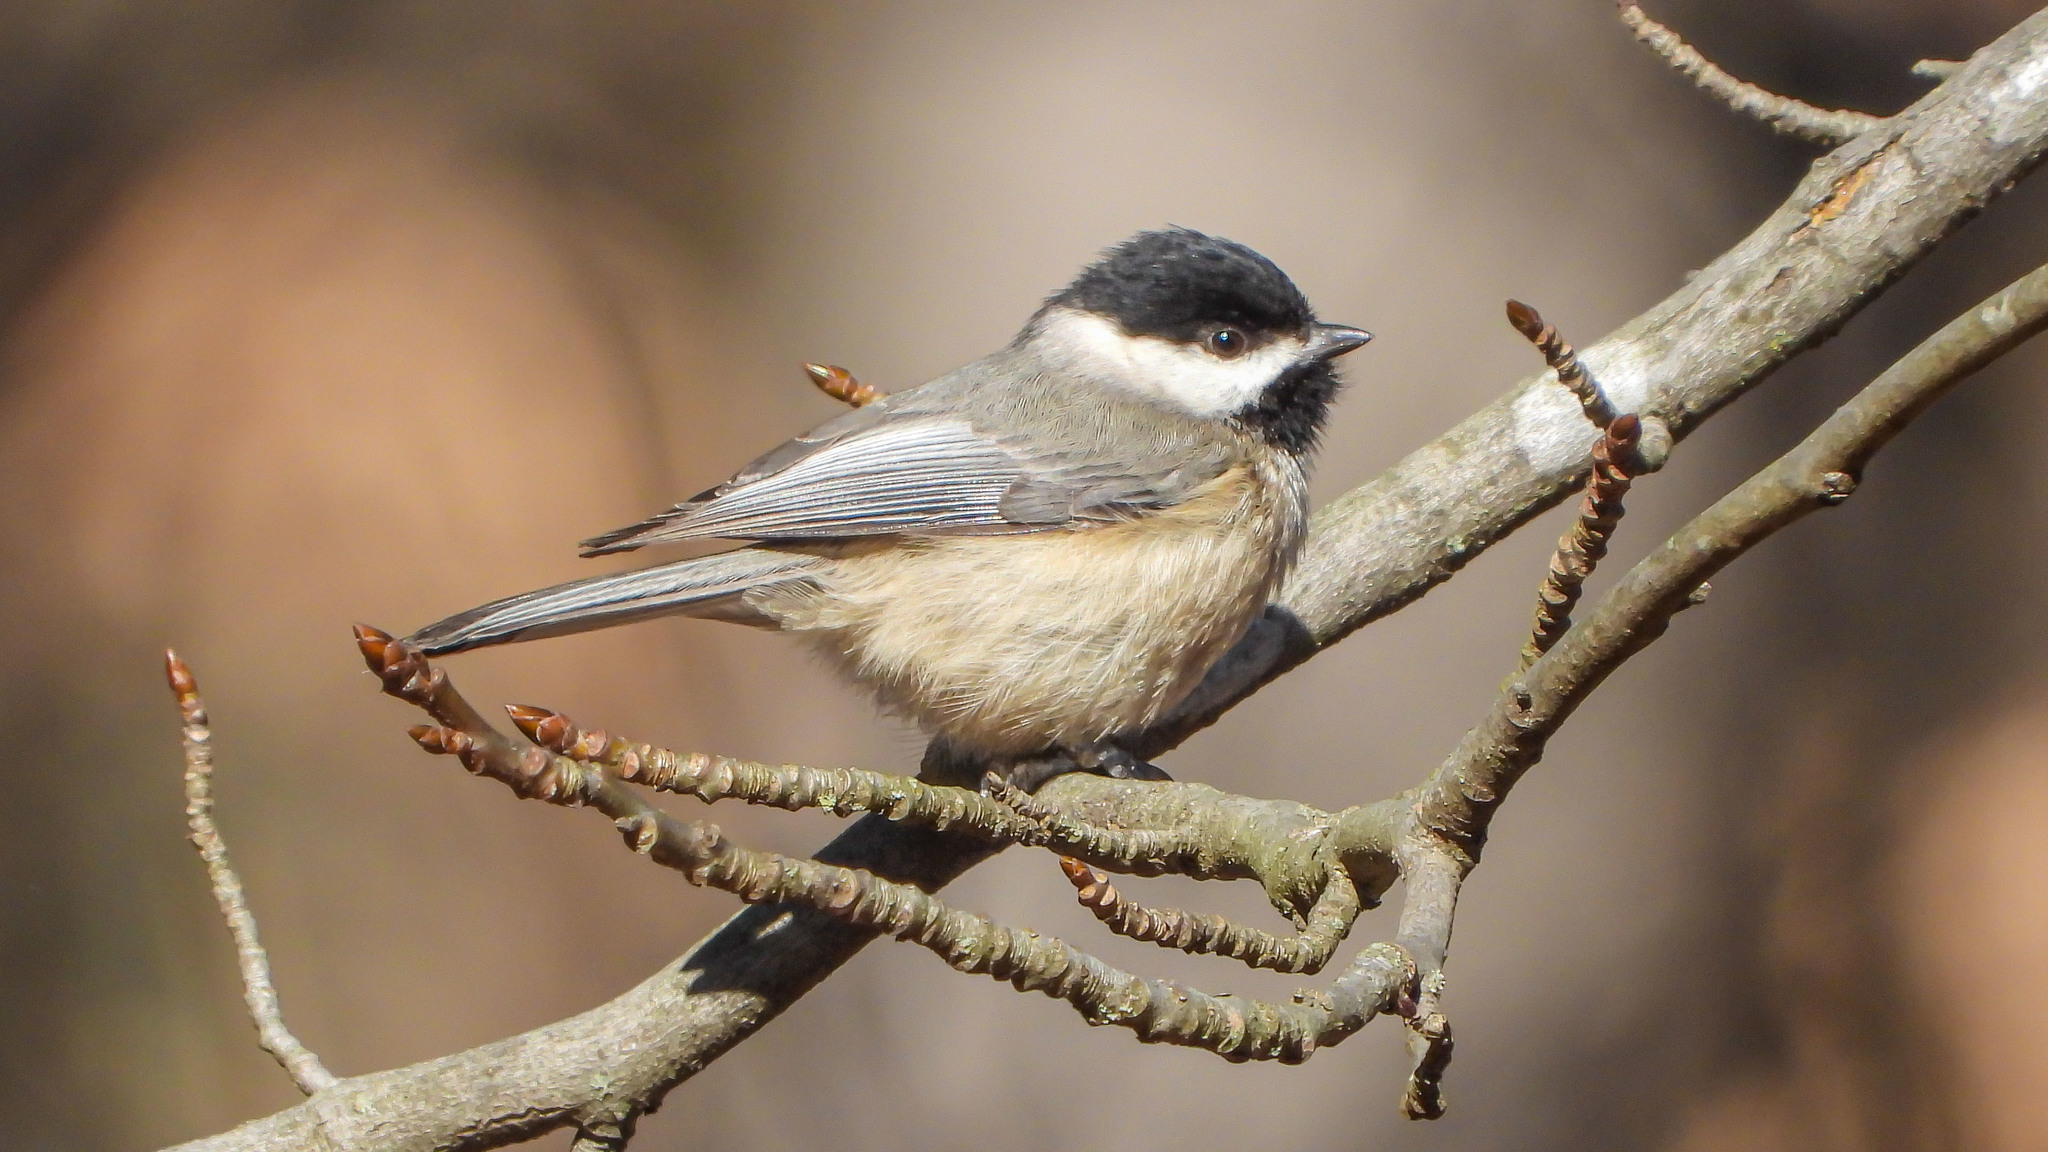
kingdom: Animalia
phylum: Chordata
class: Aves
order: Passeriformes
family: Paridae
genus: Poecile
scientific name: Poecile carolinensis
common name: Carolina chickadee
